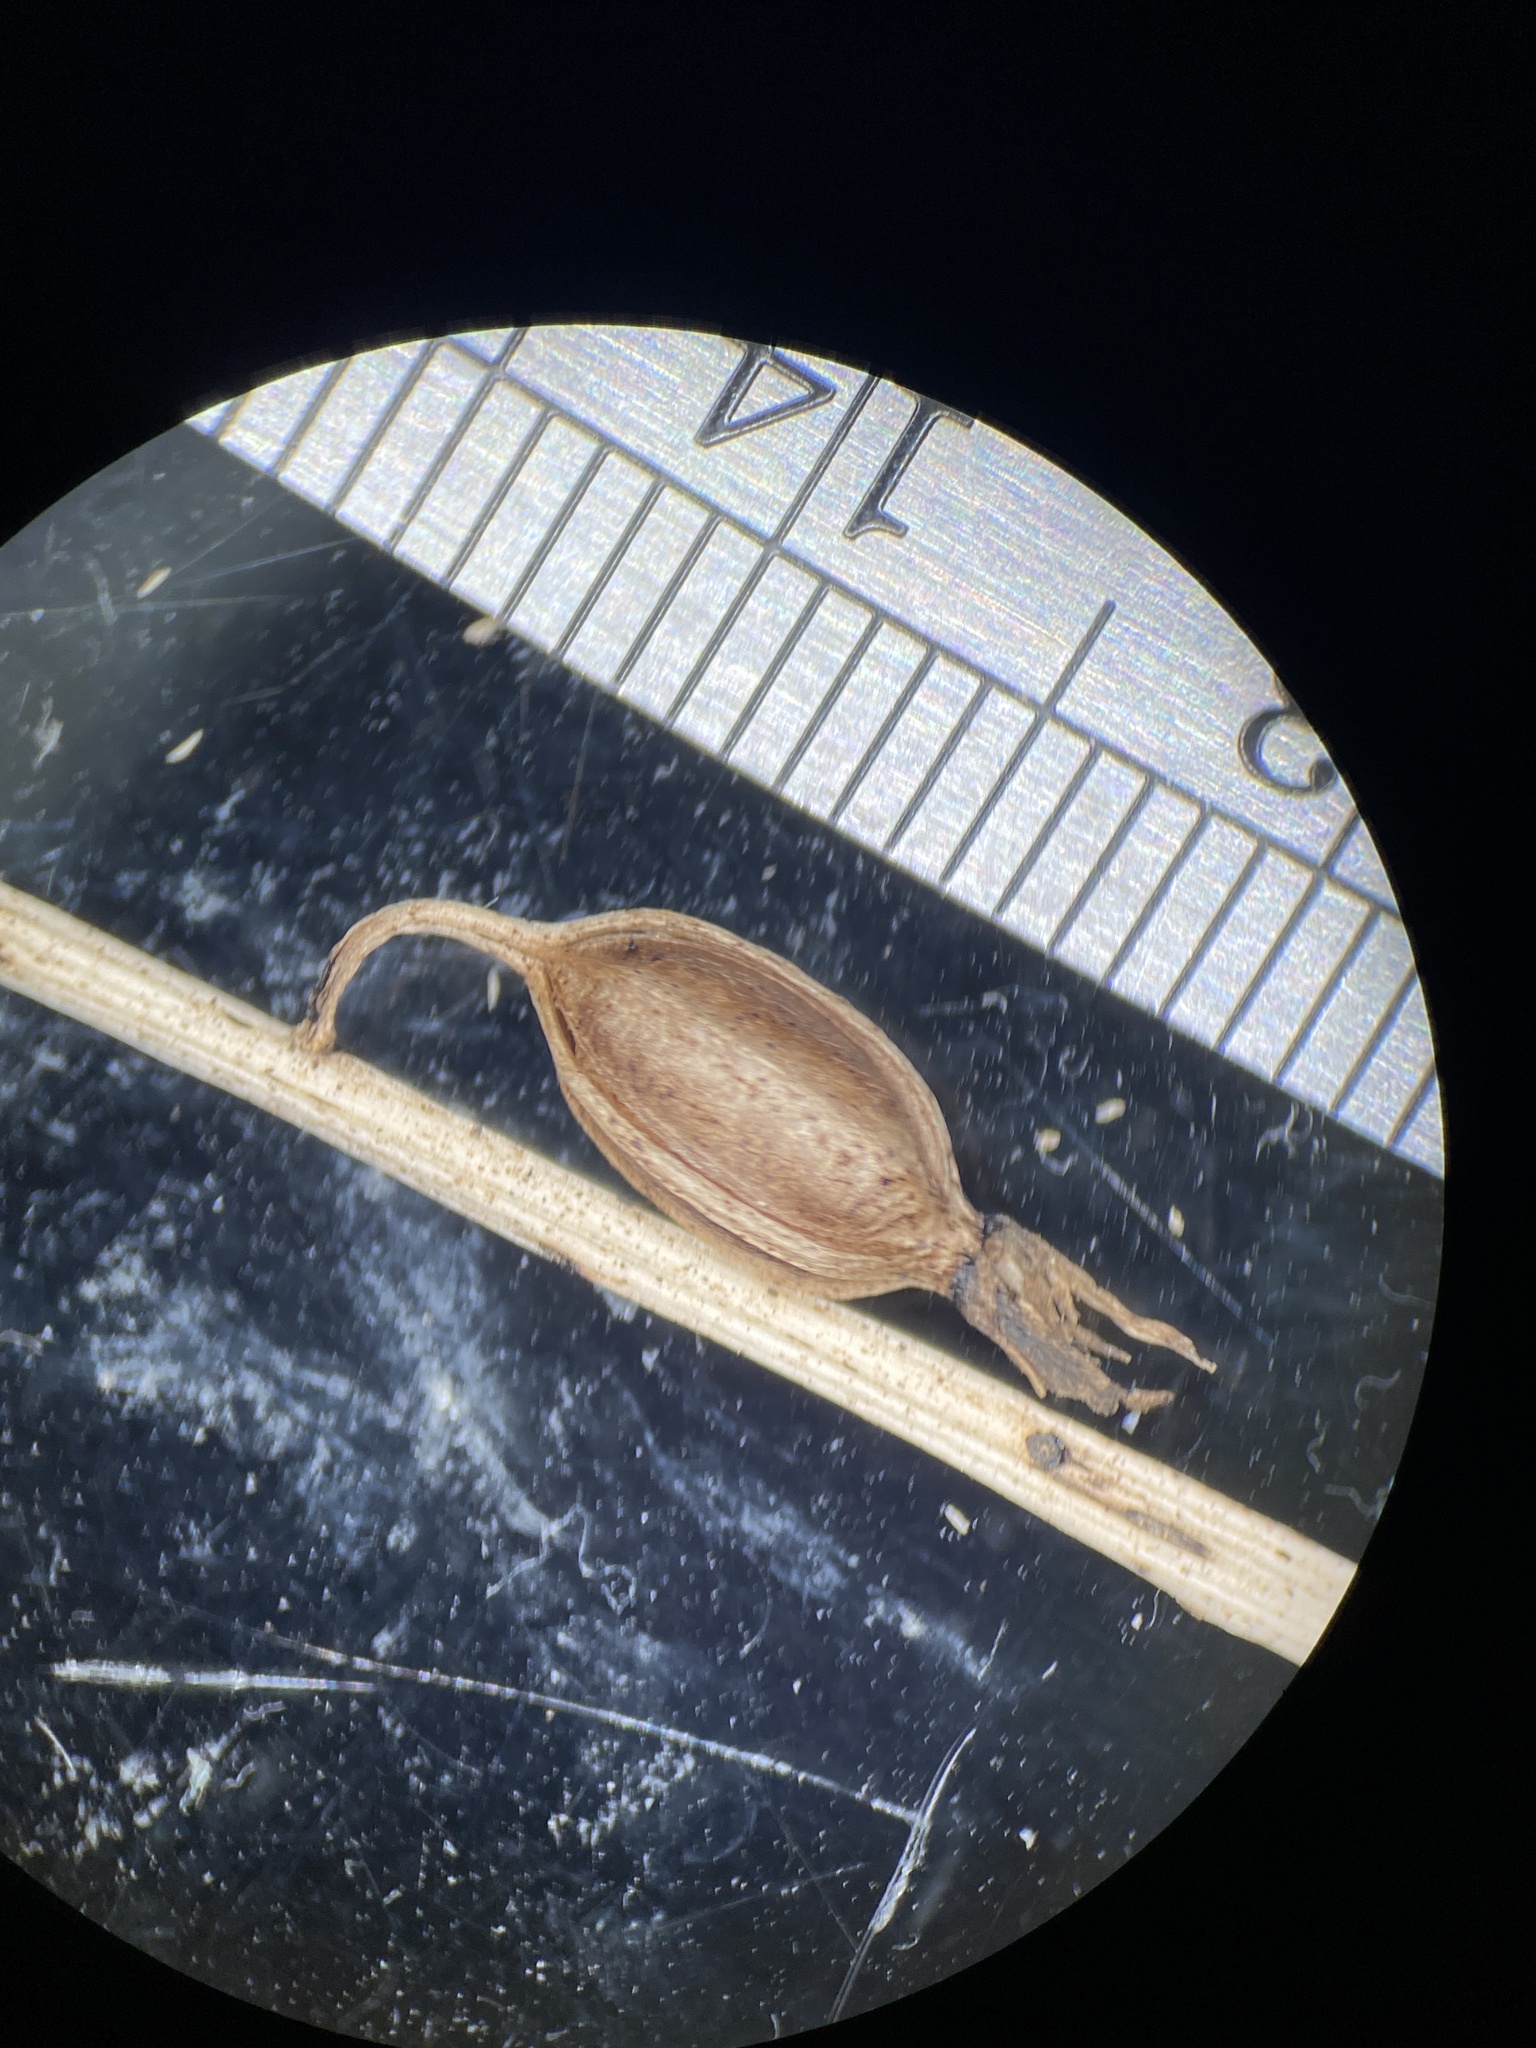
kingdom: Plantae
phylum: Tracheophyta
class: Liliopsida
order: Asparagales
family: Orchidaceae
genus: Tipularia
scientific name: Tipularia discolor
